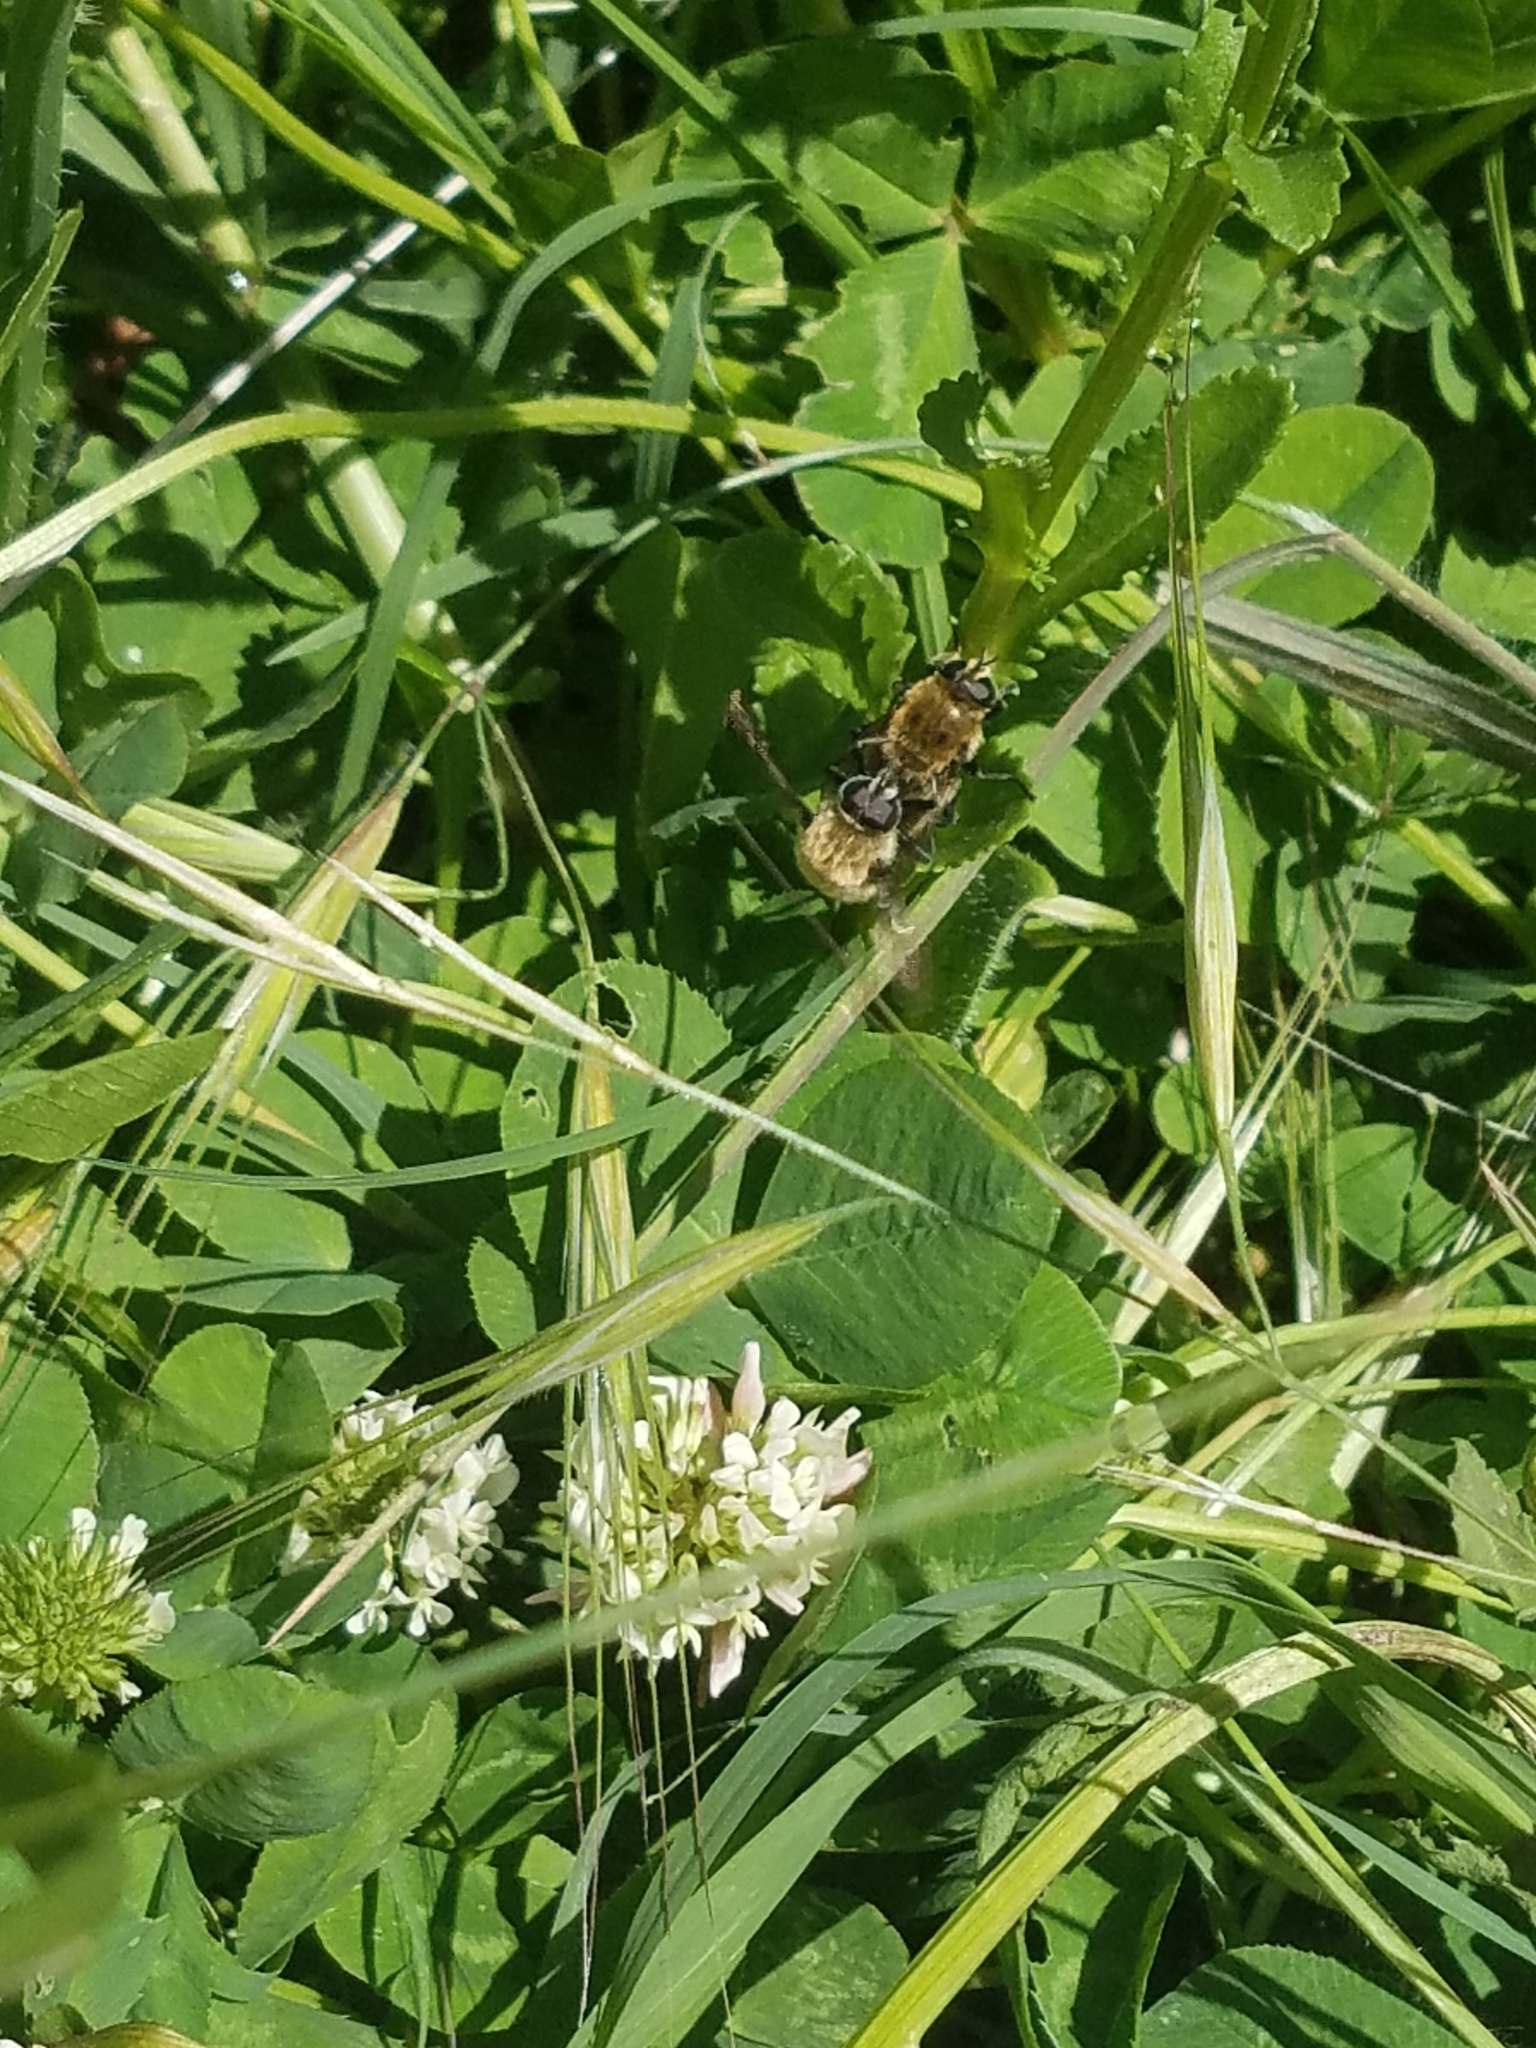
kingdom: Animalia
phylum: Arthropoda
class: Insecta
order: Diptera
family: Syrphidae
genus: Merodon
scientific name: Merodon equestris
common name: Greater bulb-fly
